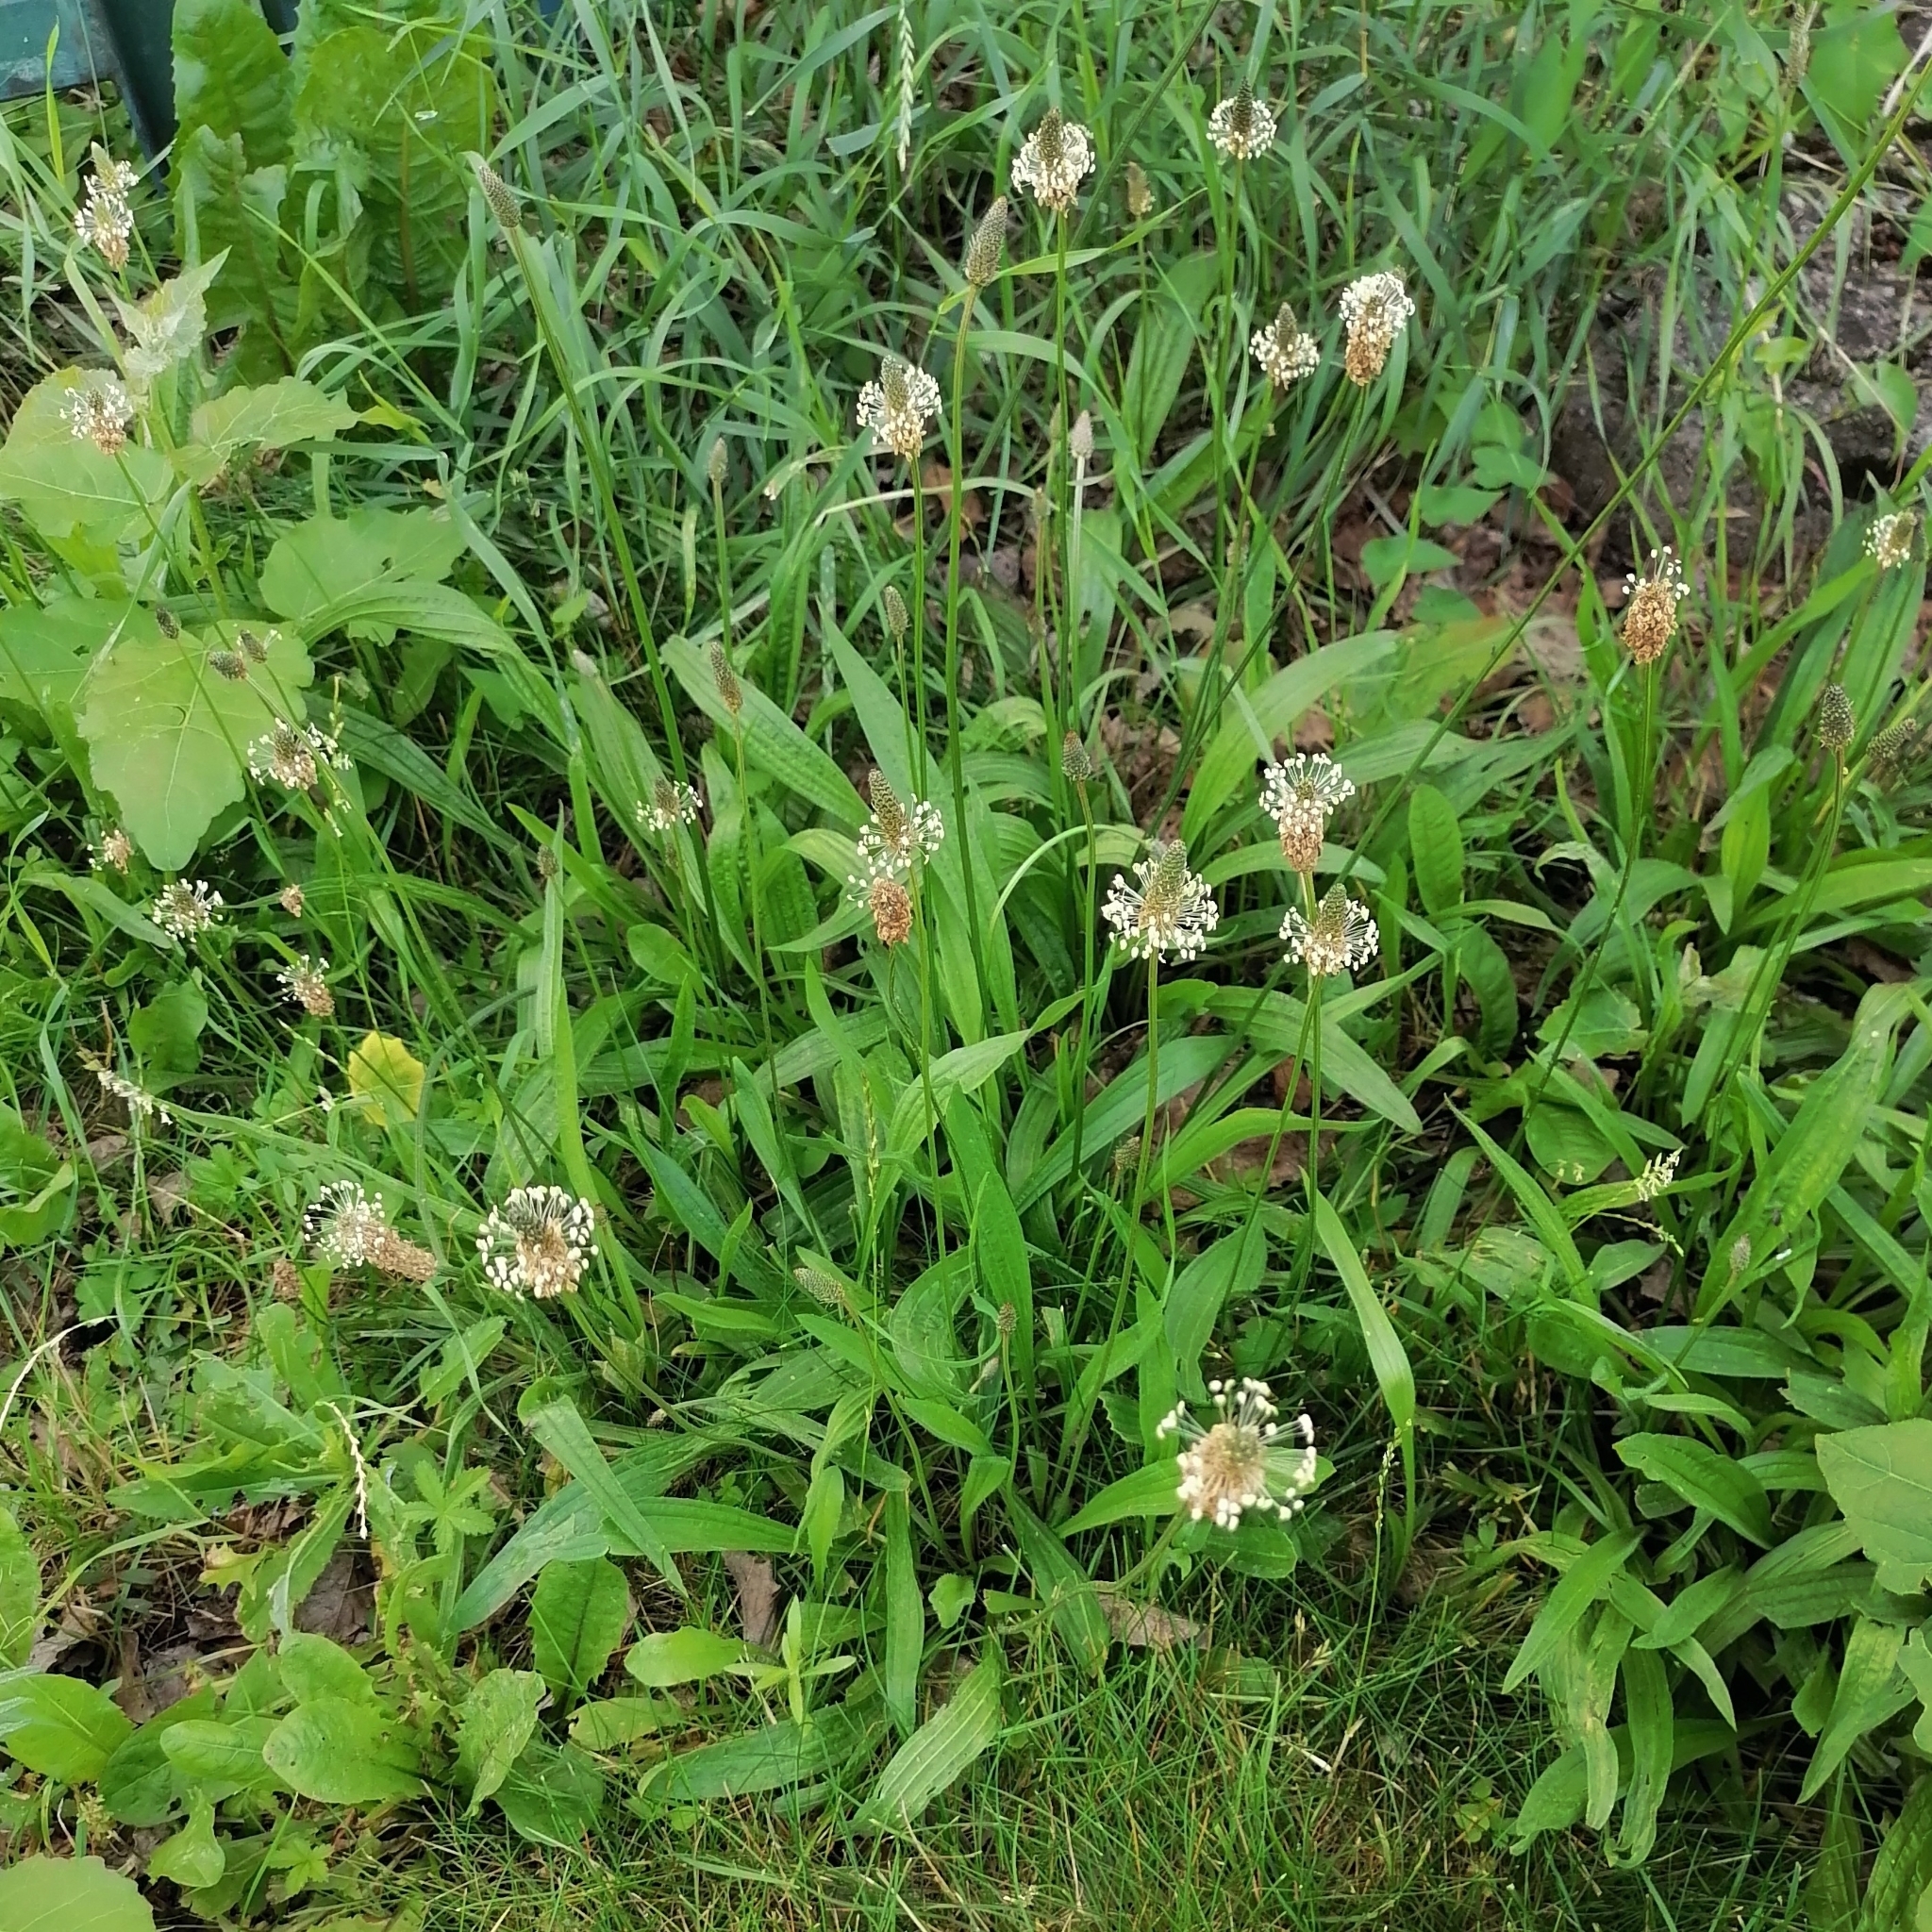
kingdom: Plantae
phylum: Tracheophyta
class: Magnoliopsida
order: Lamiales
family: Plantaginaceae
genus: Plantago
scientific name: Plantago lanceolata
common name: Ribwort plantain
